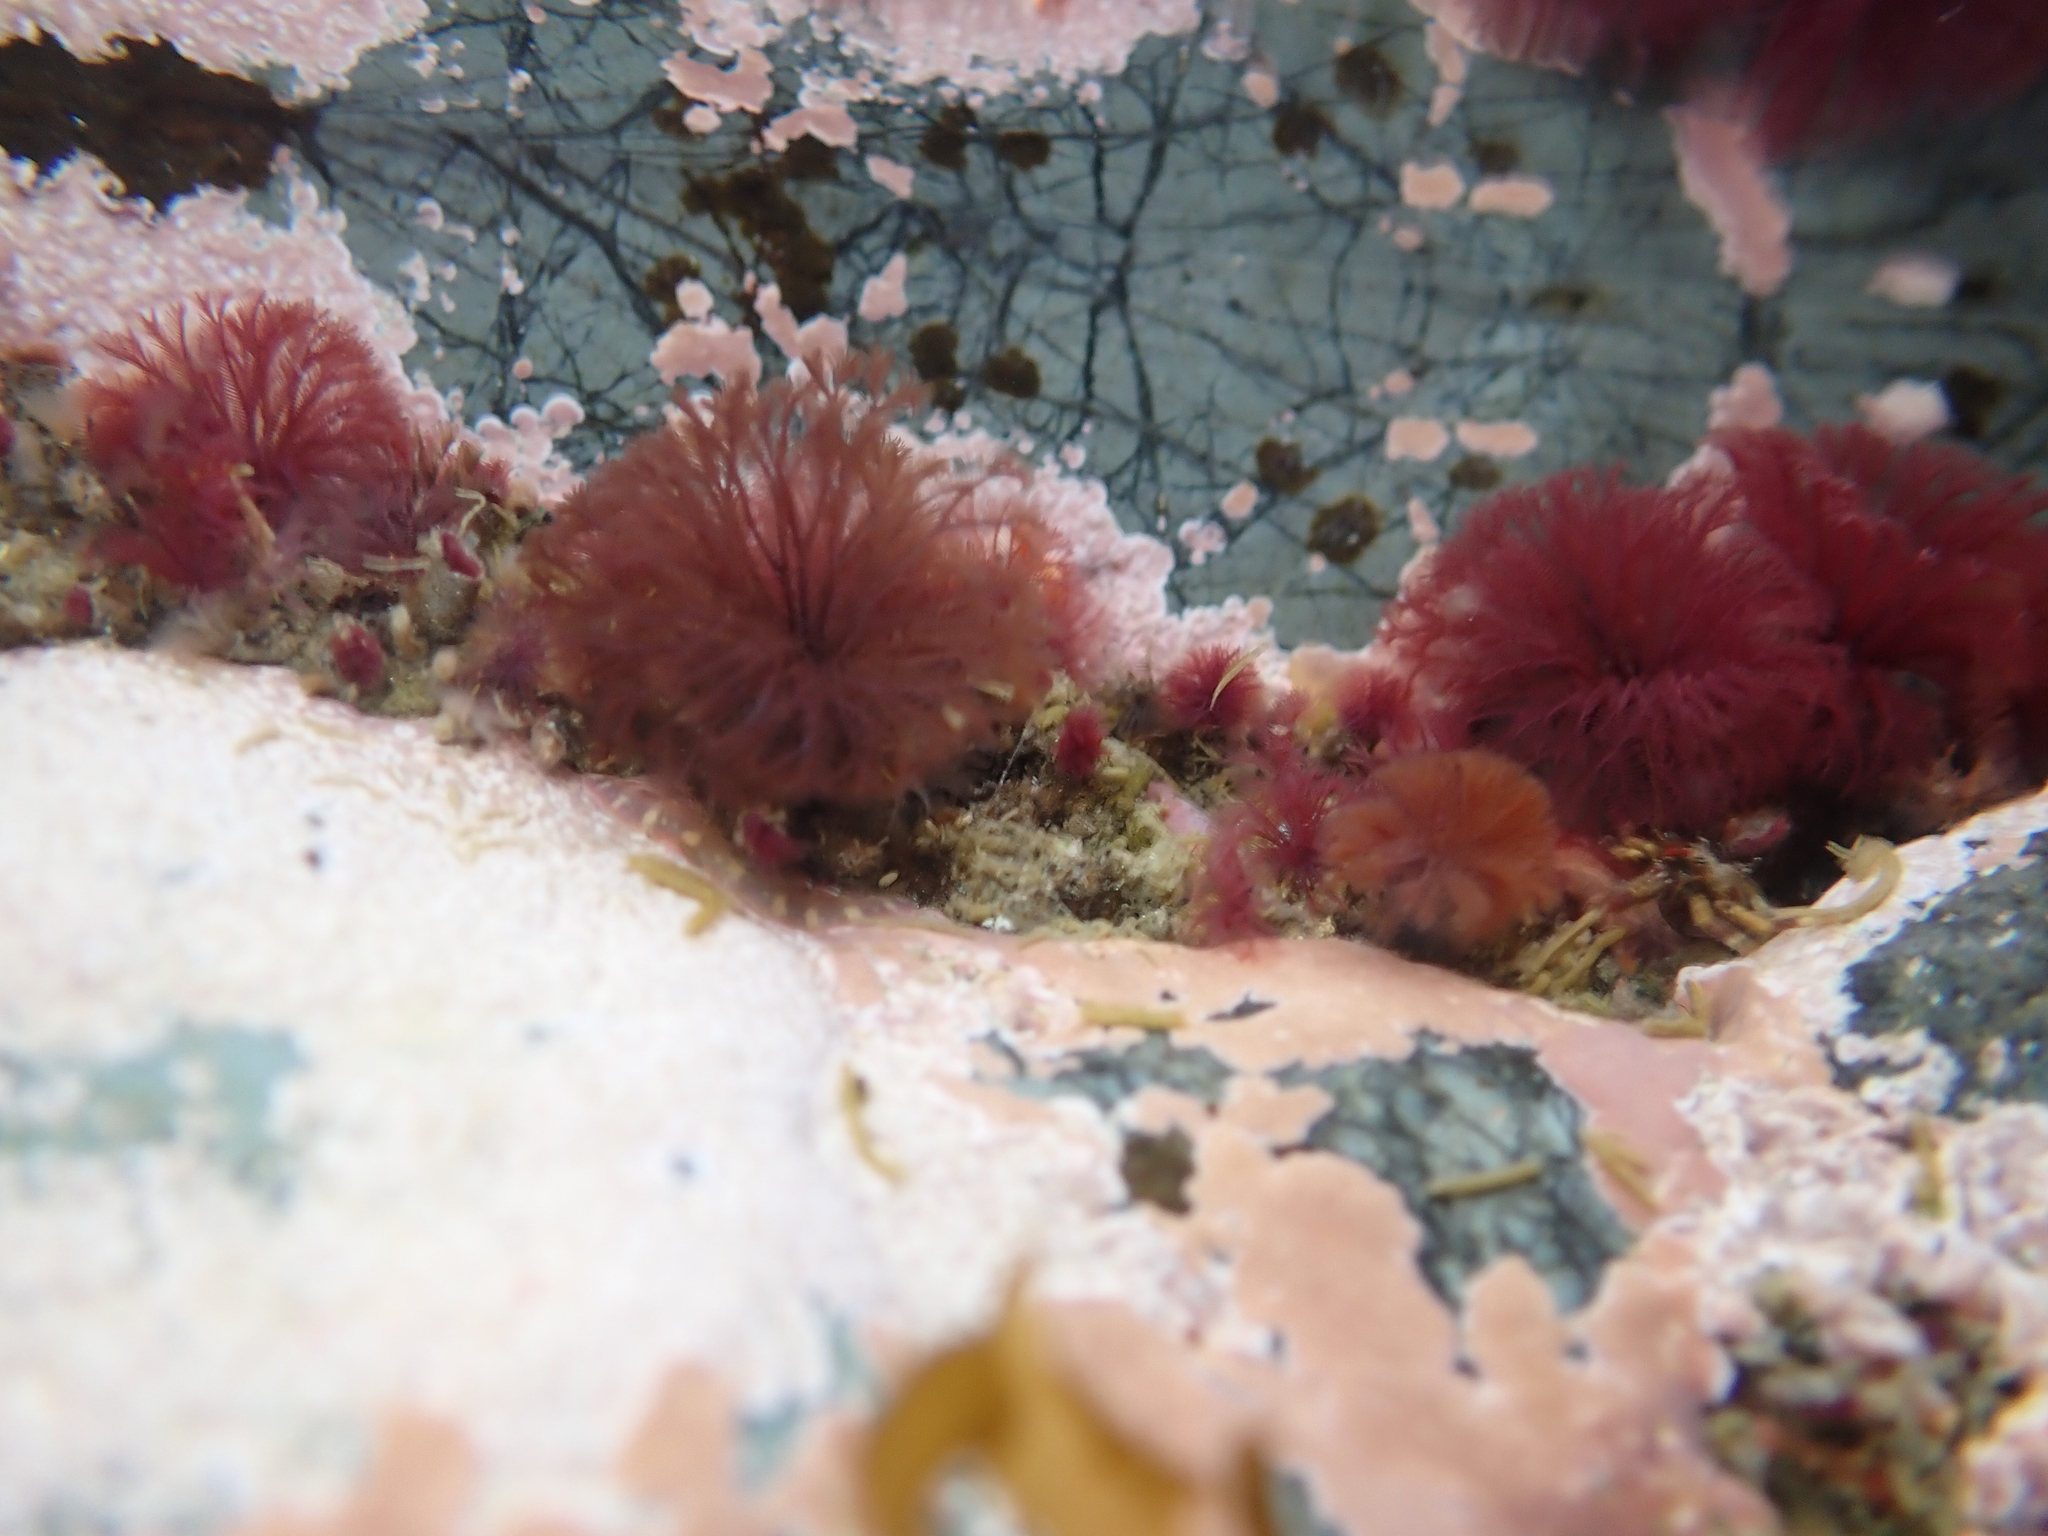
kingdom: Animalia
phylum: Annelida
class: Polychaeta
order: Sabellida
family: Sabellidae
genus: Schizobranchia
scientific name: Schizobranchia insignis
